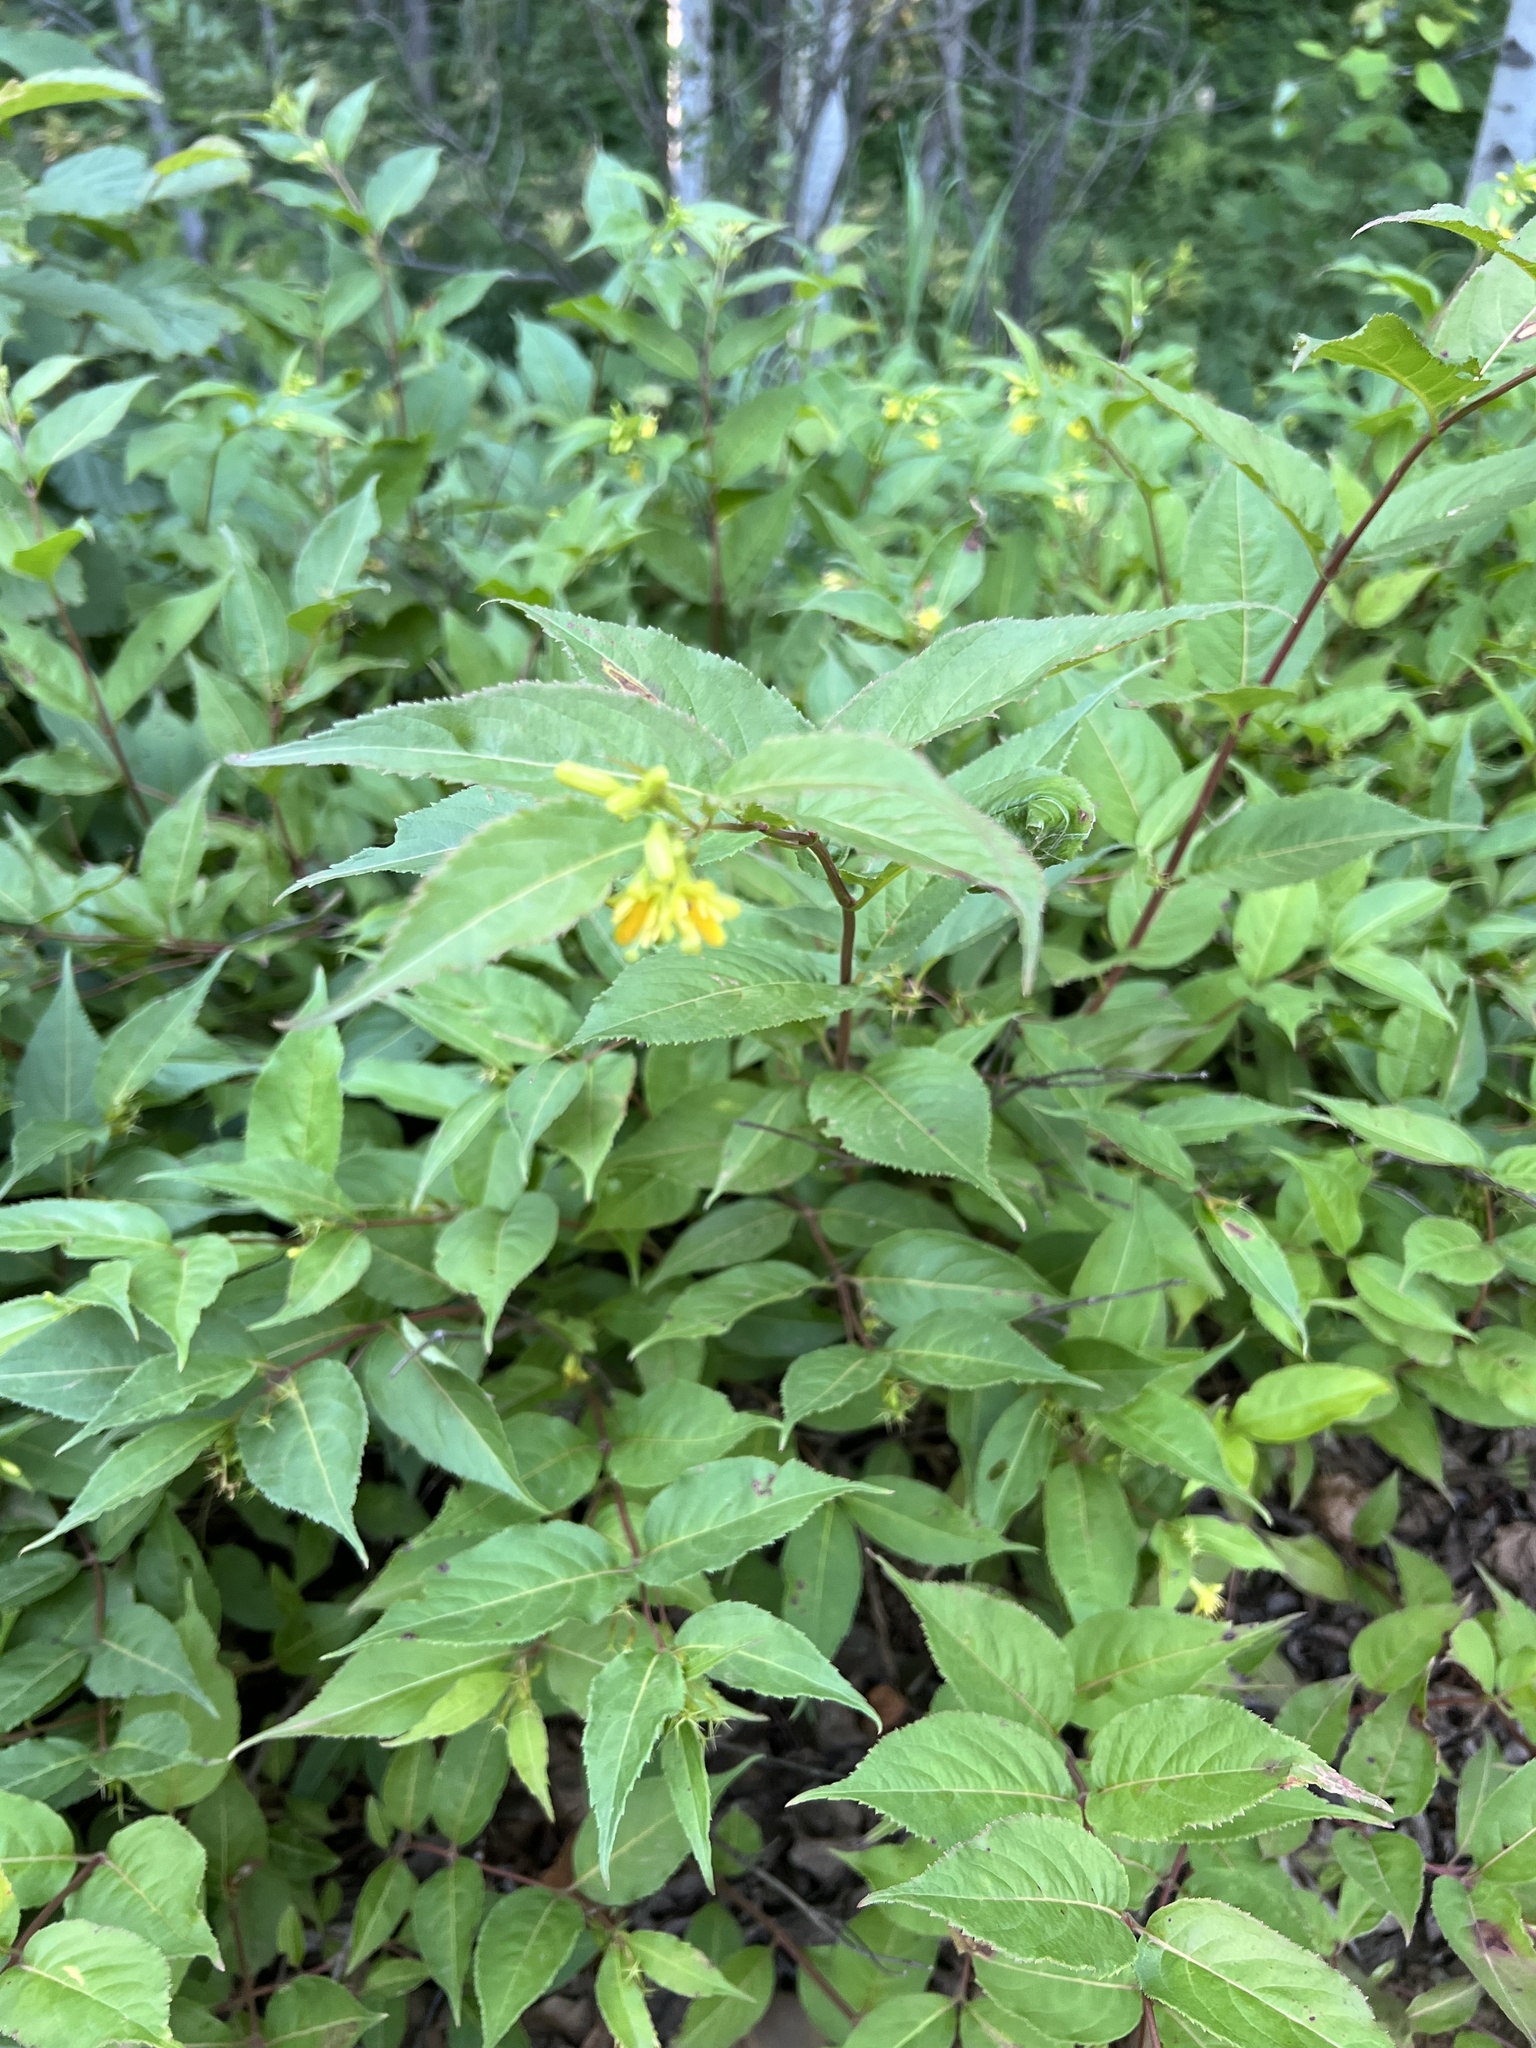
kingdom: Plantae
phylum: Tracheophyta
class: Magnoliopsida
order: Dipsacales
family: Caprifoliaceae
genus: Diervilla
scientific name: Diervilla lonicera
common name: Bush-honeysuckle
